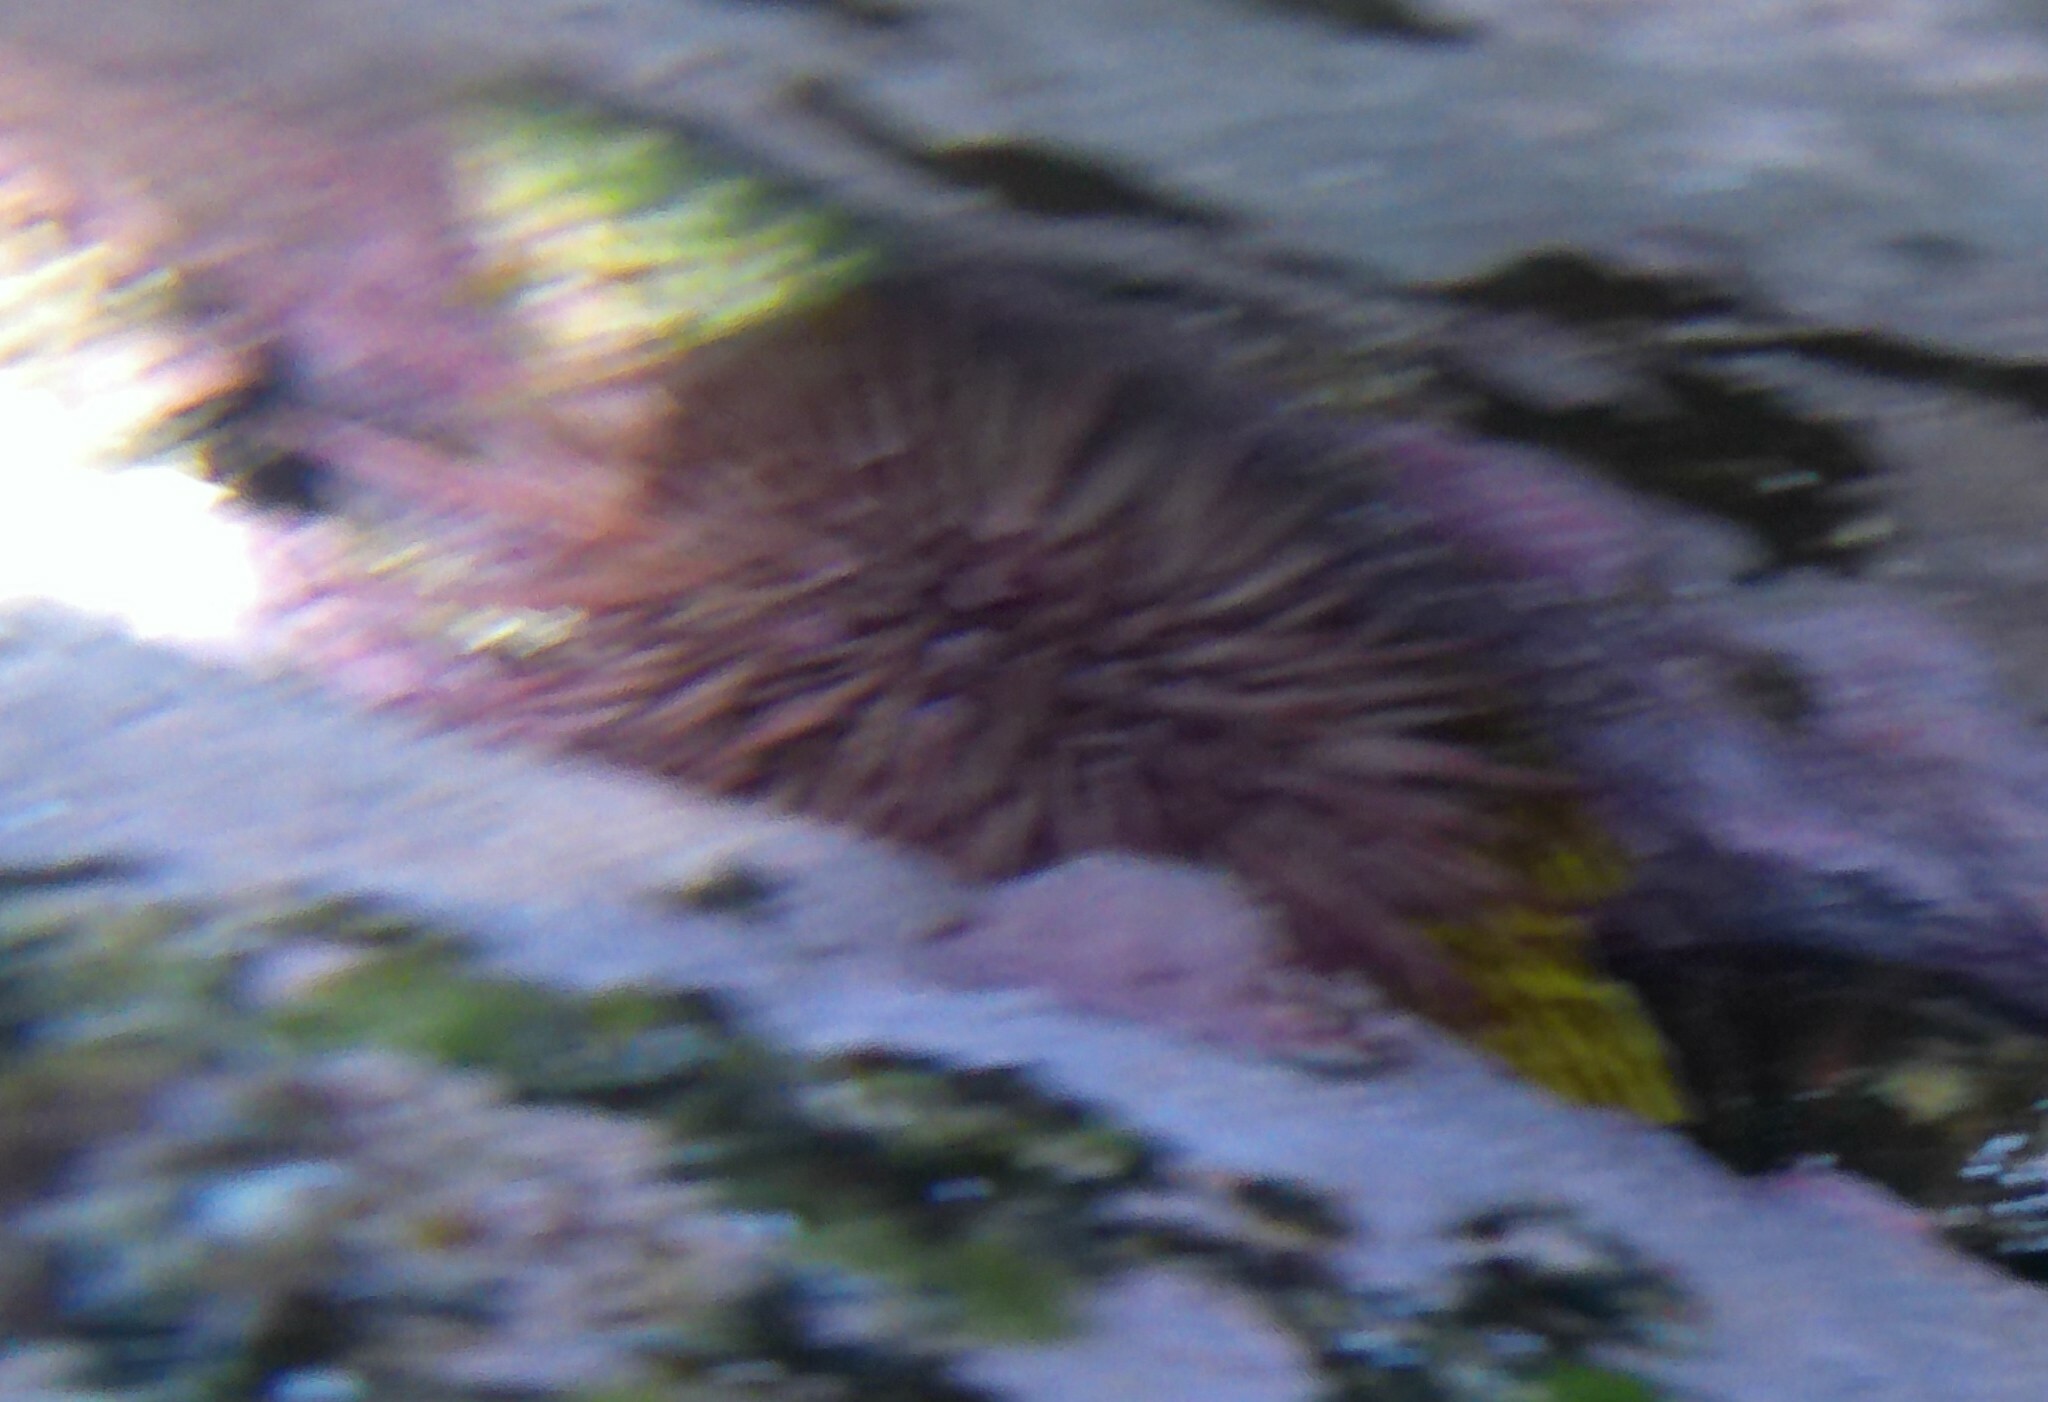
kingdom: Animalia
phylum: Echinodermata
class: Echinoidea
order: Camarodonta
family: Echinometridae
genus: Heliocidaris
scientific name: Heliocidaris erythrogramma
